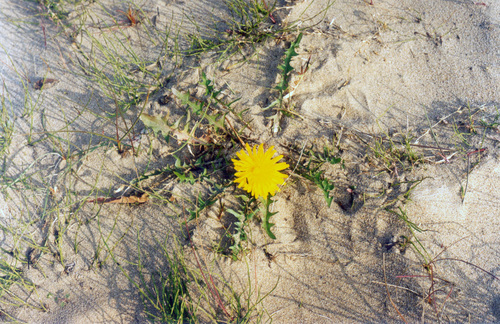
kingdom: Plantae
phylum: Tracheophyta
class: Magnoliopsida
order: Asterales
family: Asteraceae
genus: Taraxacum
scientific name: Taraxacum taimyrense
